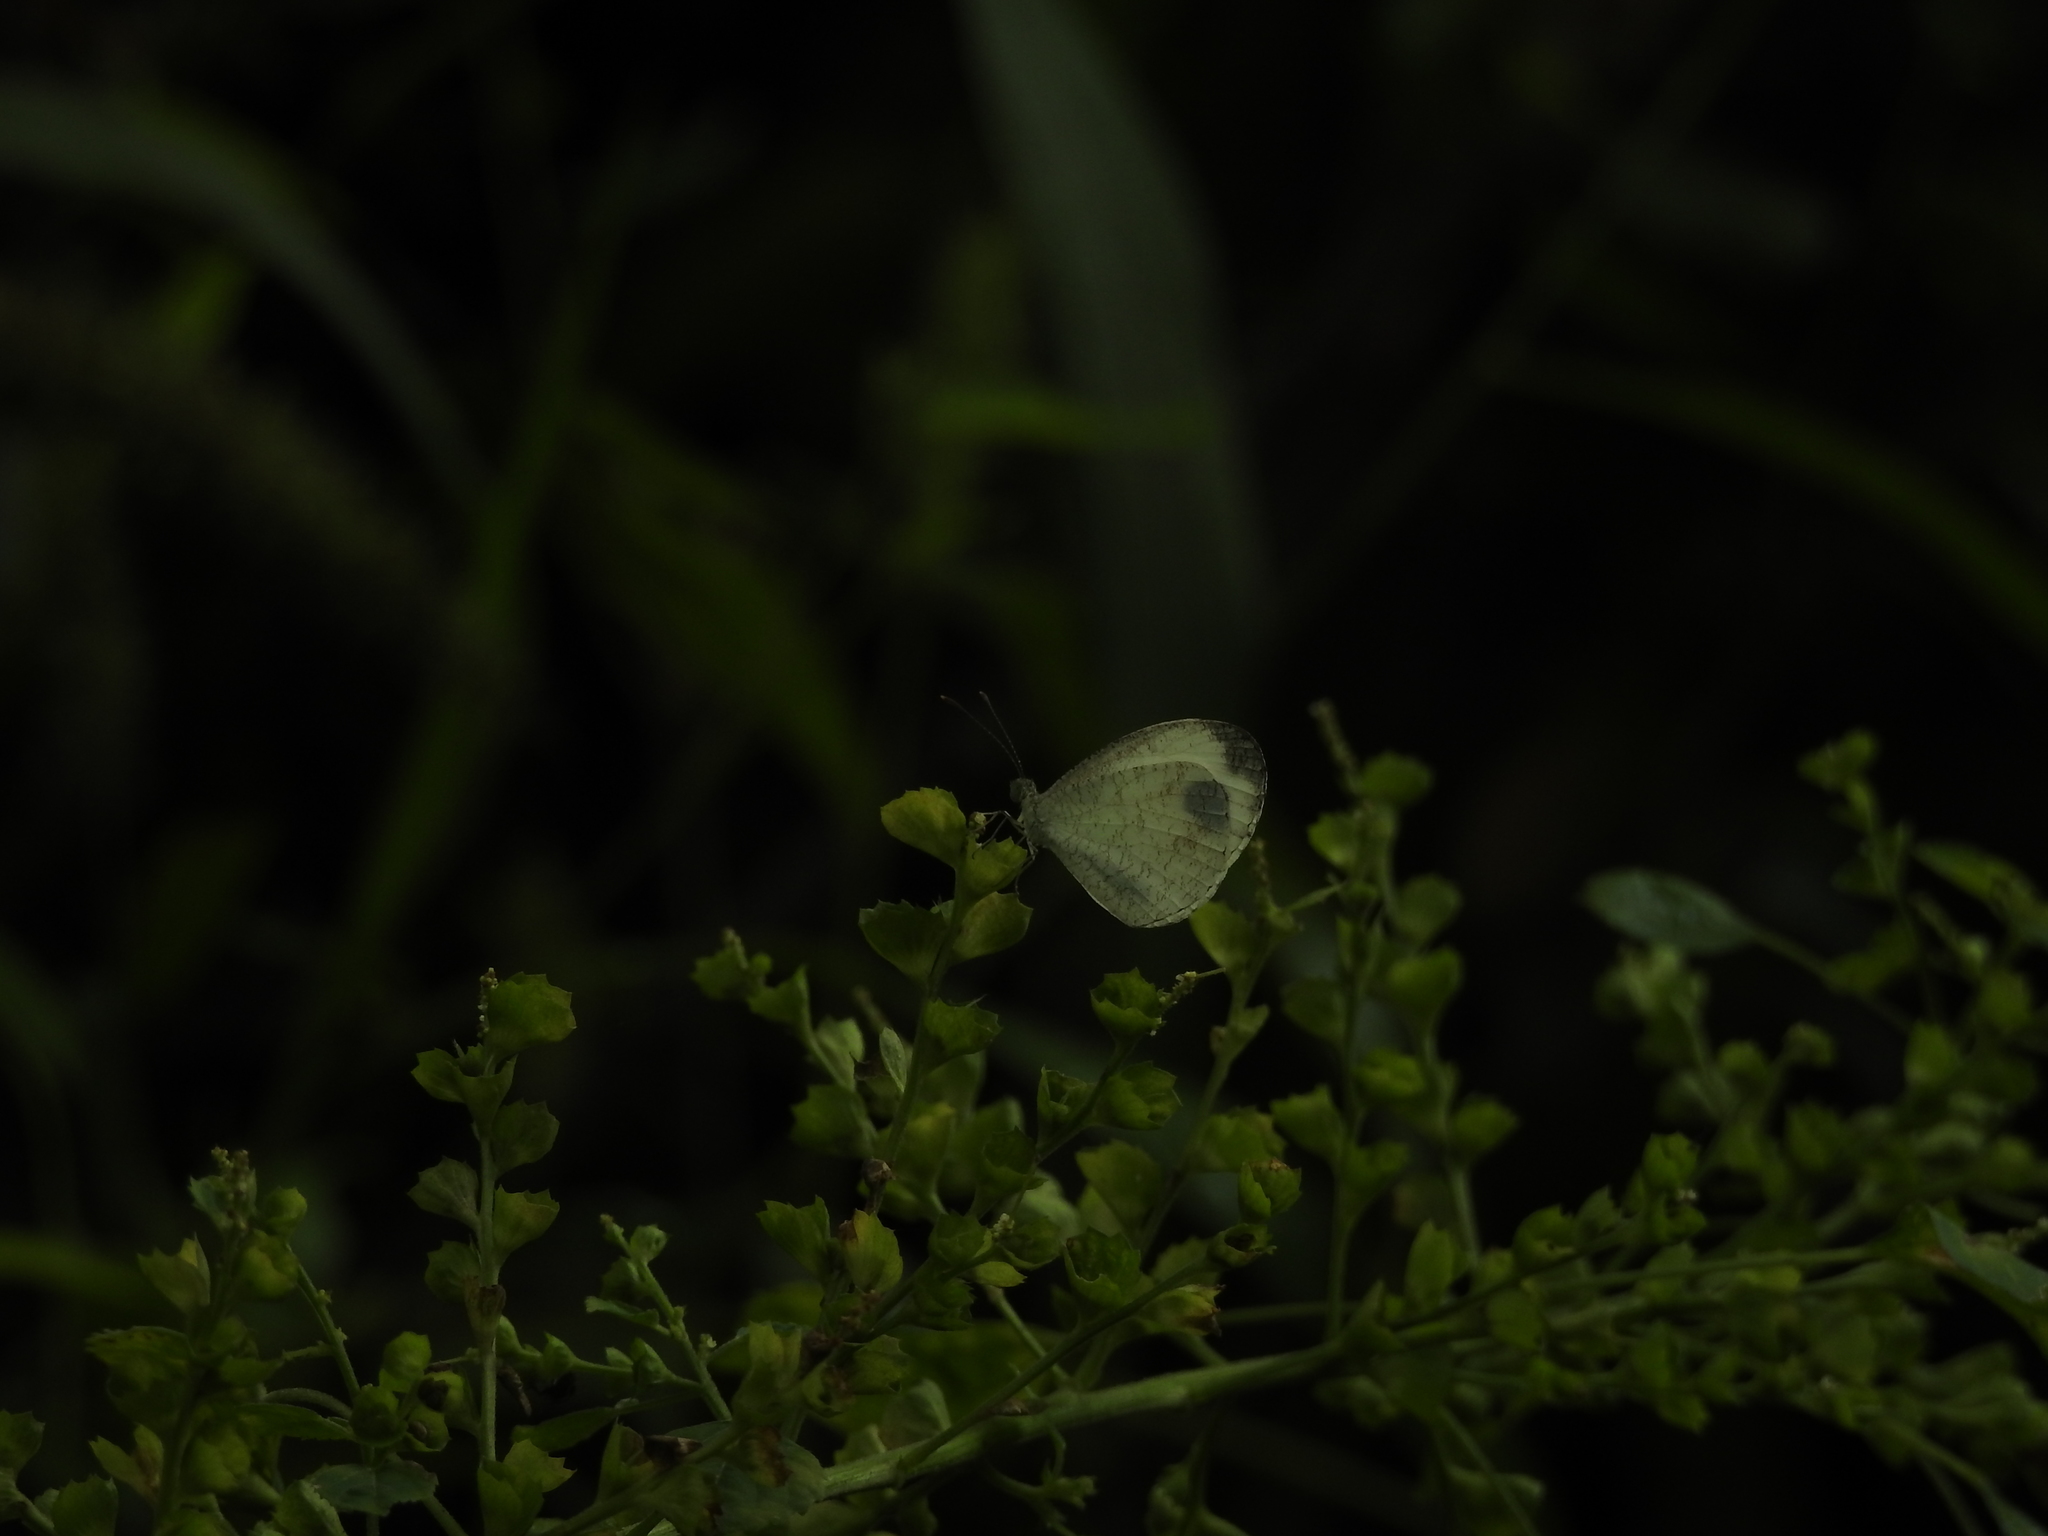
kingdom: Animalia
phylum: Arthropoda
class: Insecta
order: Lepidoptera
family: Pieridae
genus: Leptosia
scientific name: Leptosia nina
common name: Psyche
